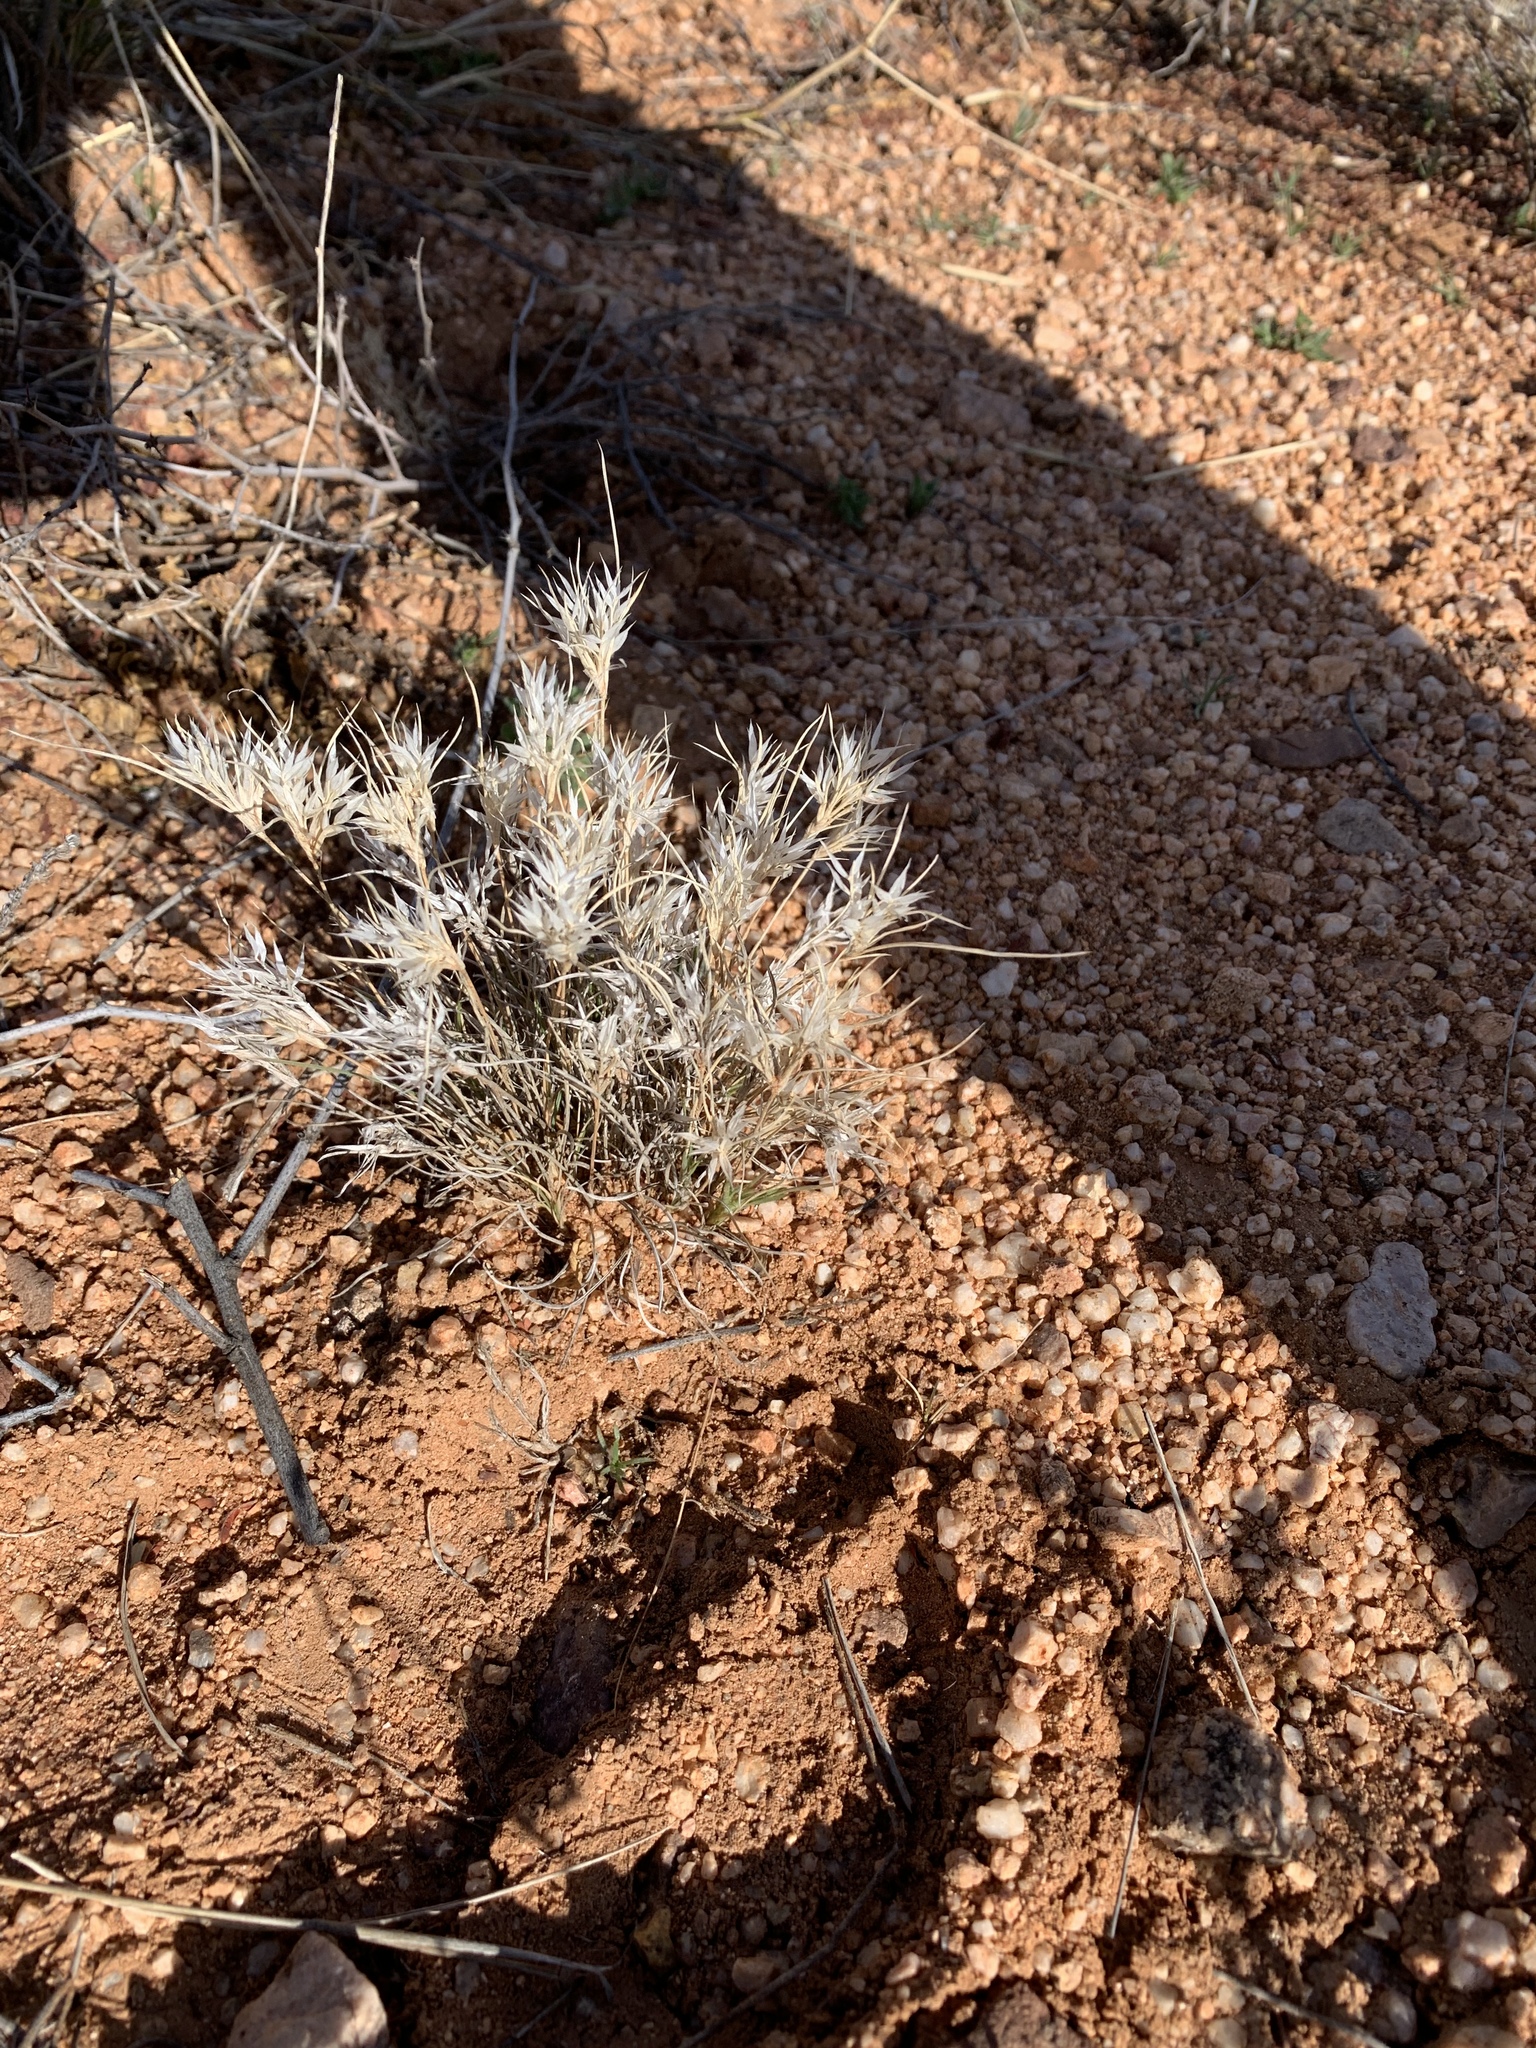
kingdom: Plantae
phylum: Tracheophyta
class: Liliopsida
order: Poales
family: Poaceae
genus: Dasyochloa
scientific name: Dasyochloa pulchella
